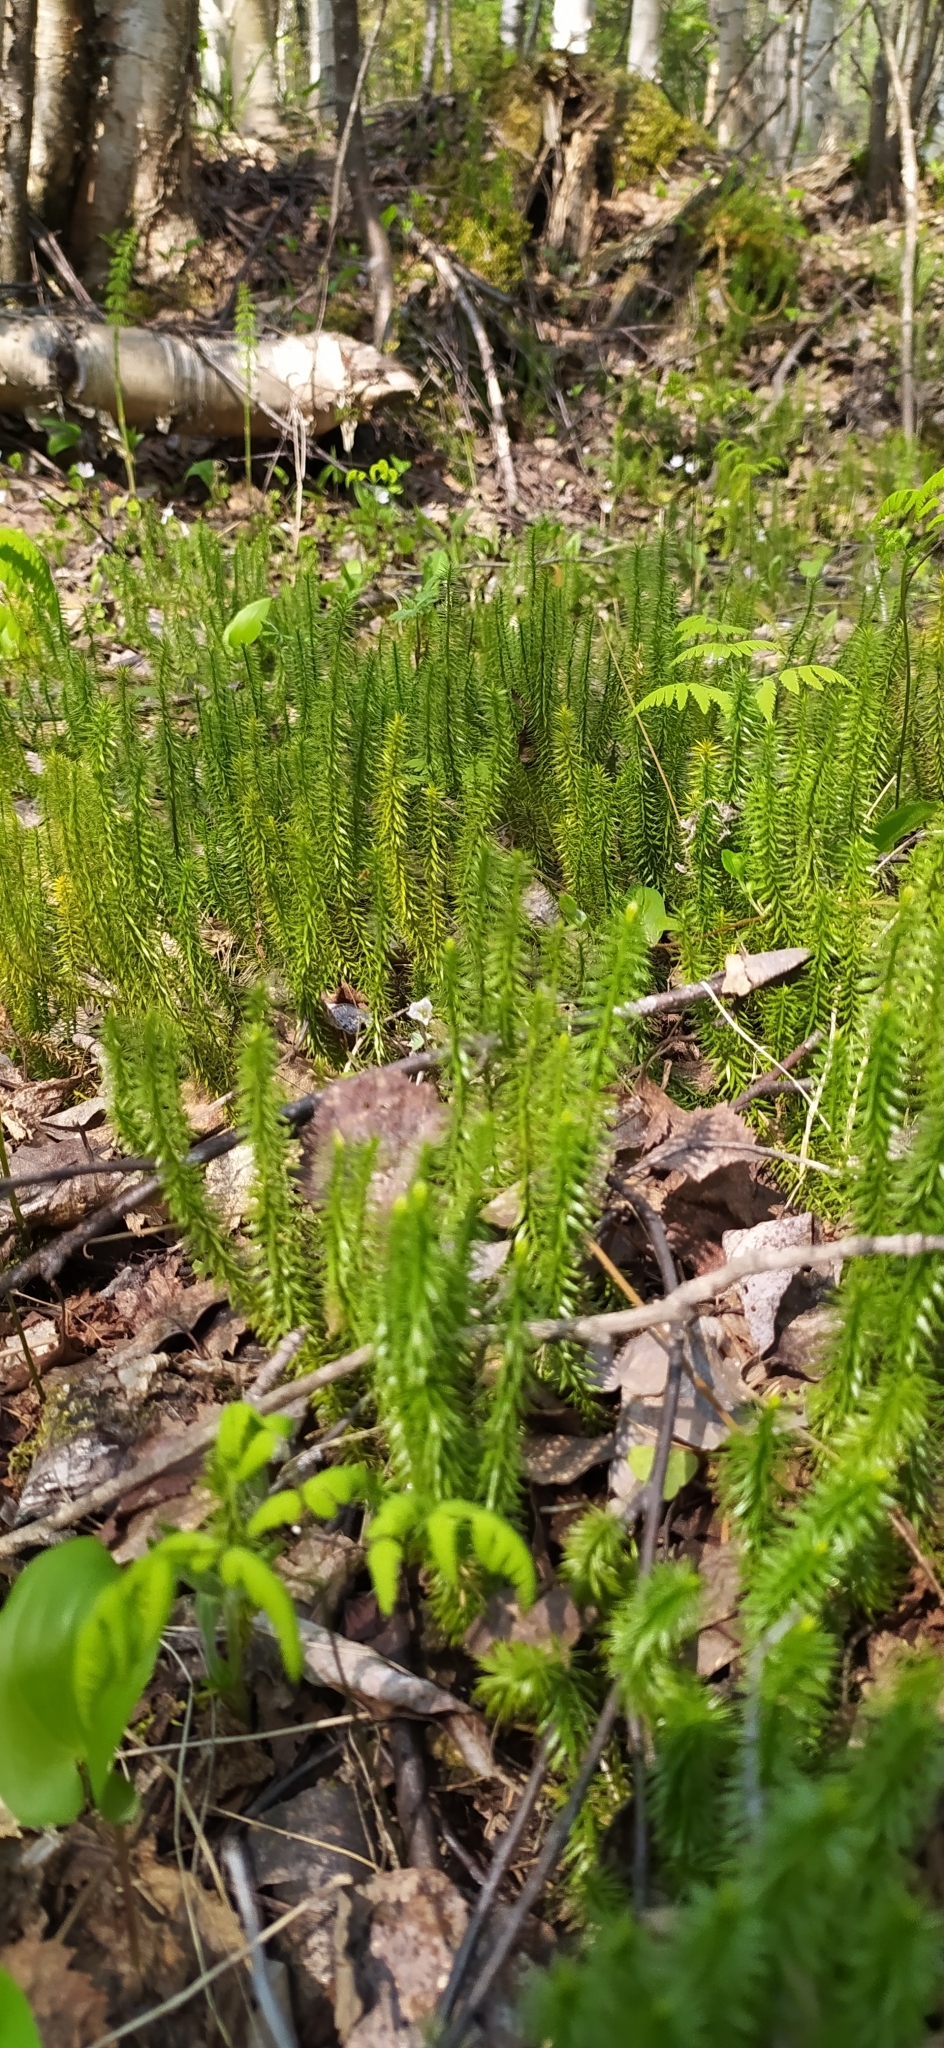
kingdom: Plantae
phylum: Tracheophyta
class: Lycopodiopsida
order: Lycopodiales
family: Lycopodiaceae
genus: Spinulum
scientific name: Spinulum annotinum
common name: Interrupted club-moss
